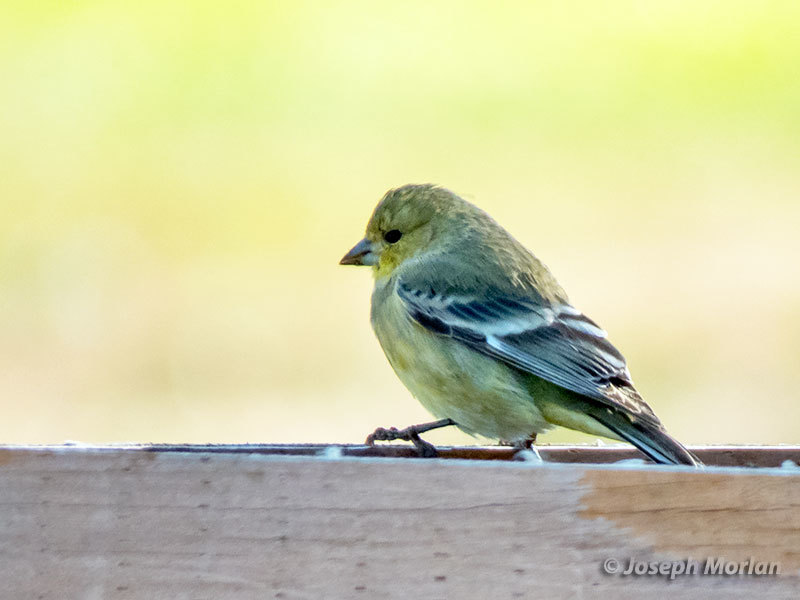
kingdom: Animalia
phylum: Chordata
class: Aves
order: Passeriformes
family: Fringillidae
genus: Spinus
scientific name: Spinus psaltria
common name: Lesser goldfinch
